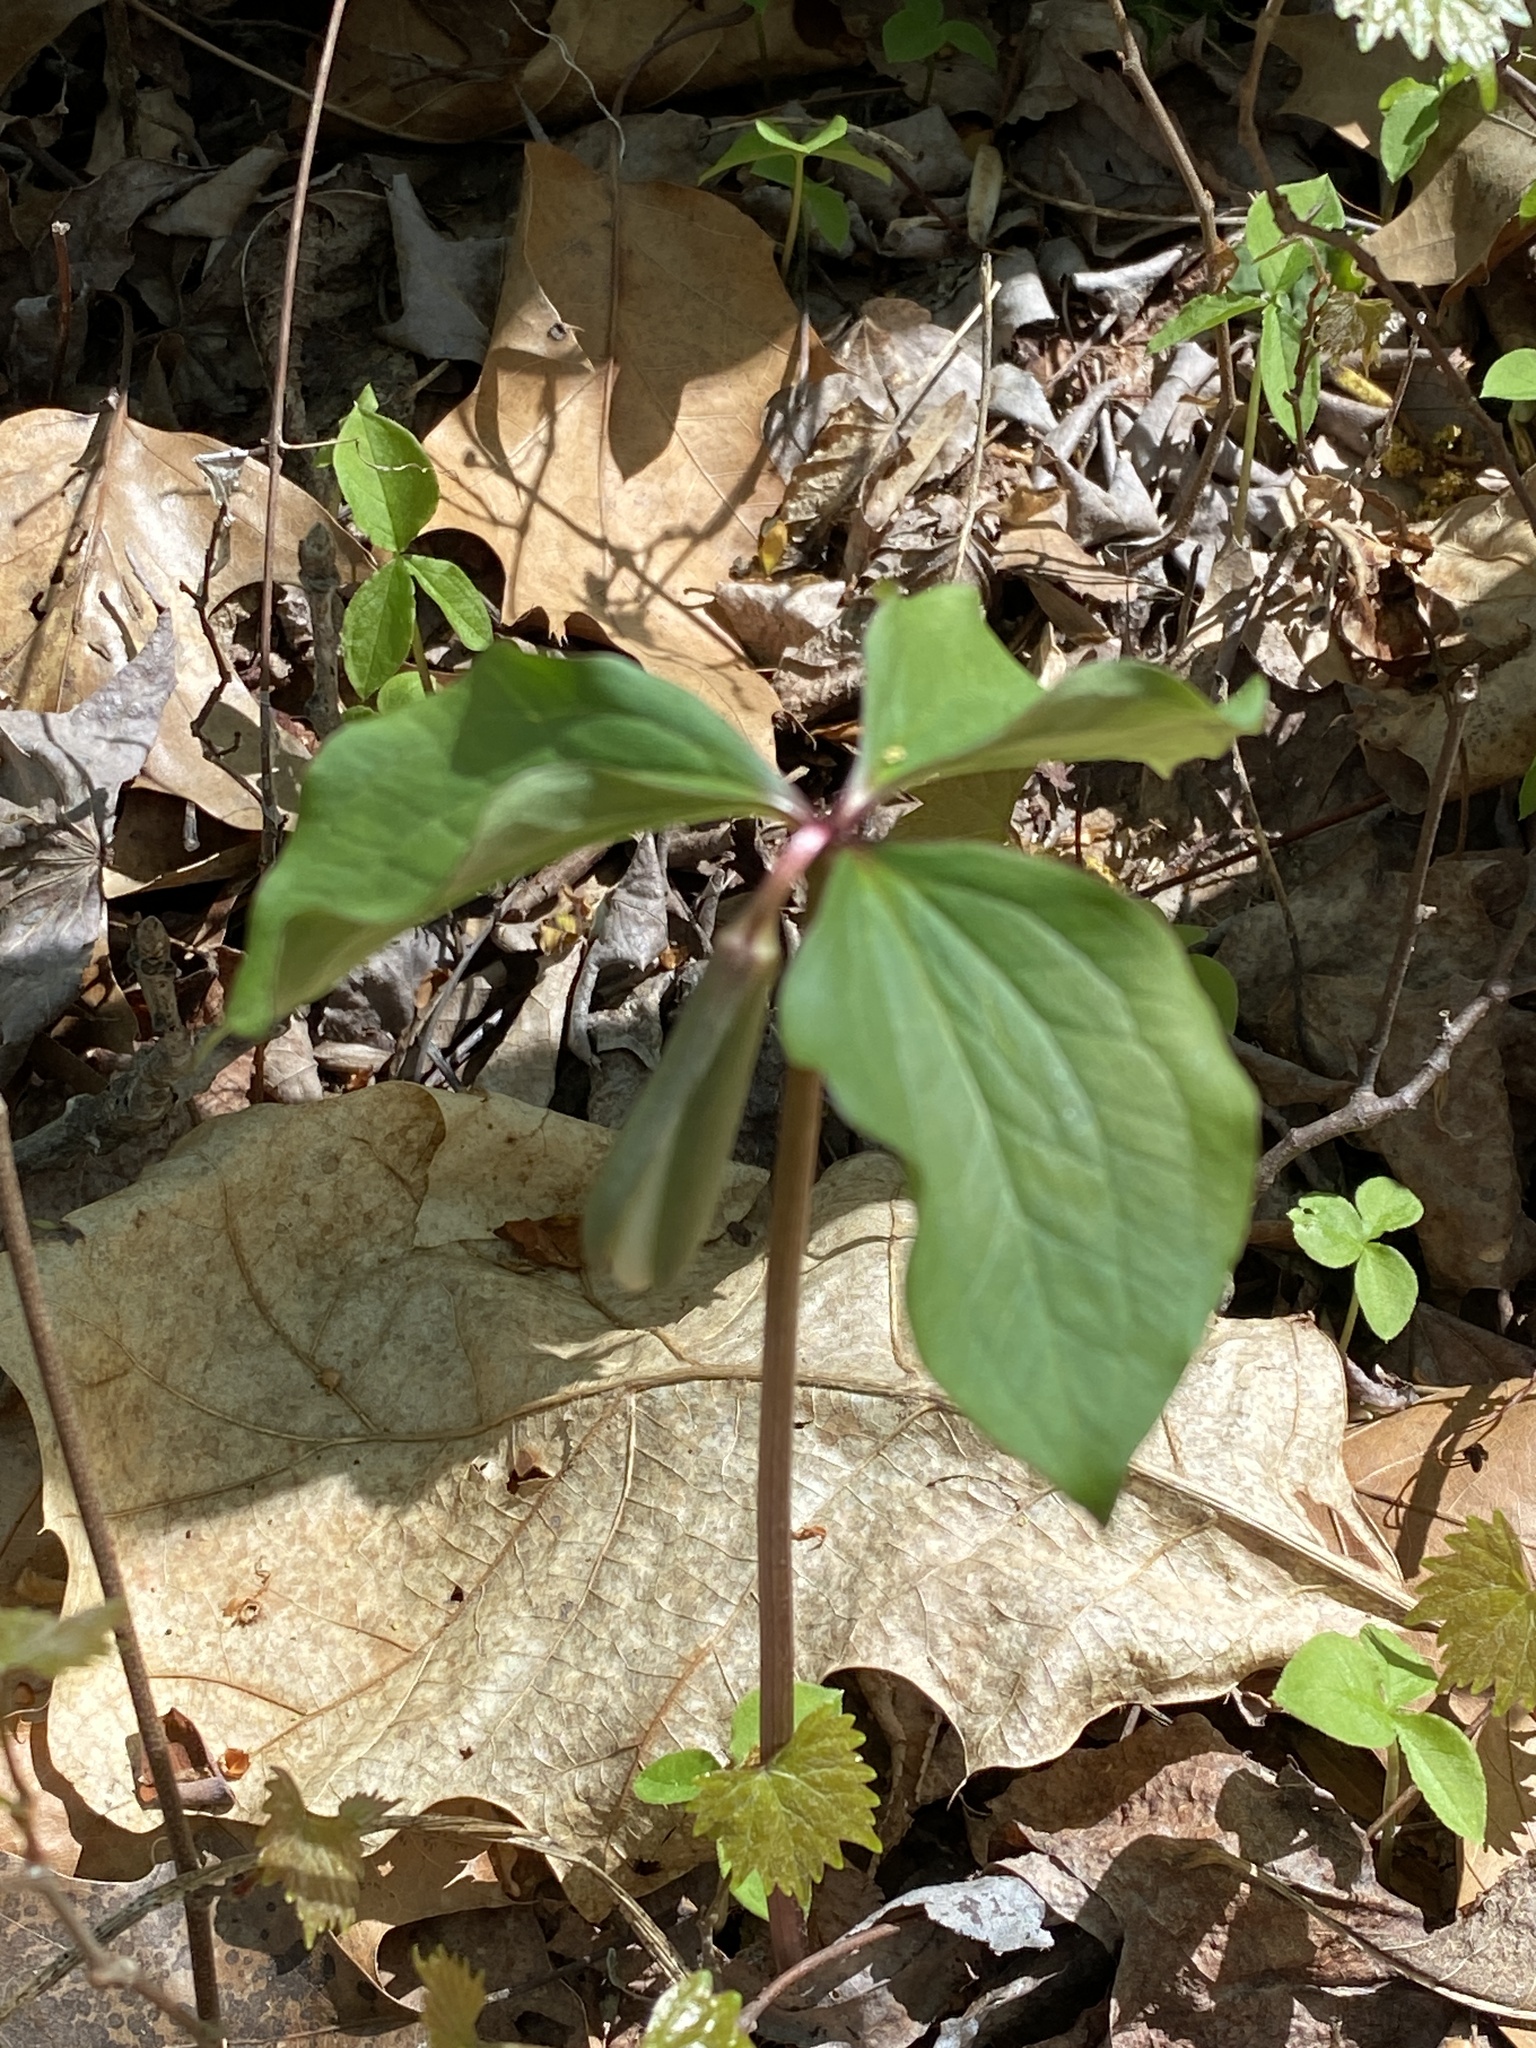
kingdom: Plantae
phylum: Tracheophyta
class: Liliopsida
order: Liliales
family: Melanthiaceae
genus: Trillium
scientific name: Trillium catesbaei
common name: Bashful trillium
